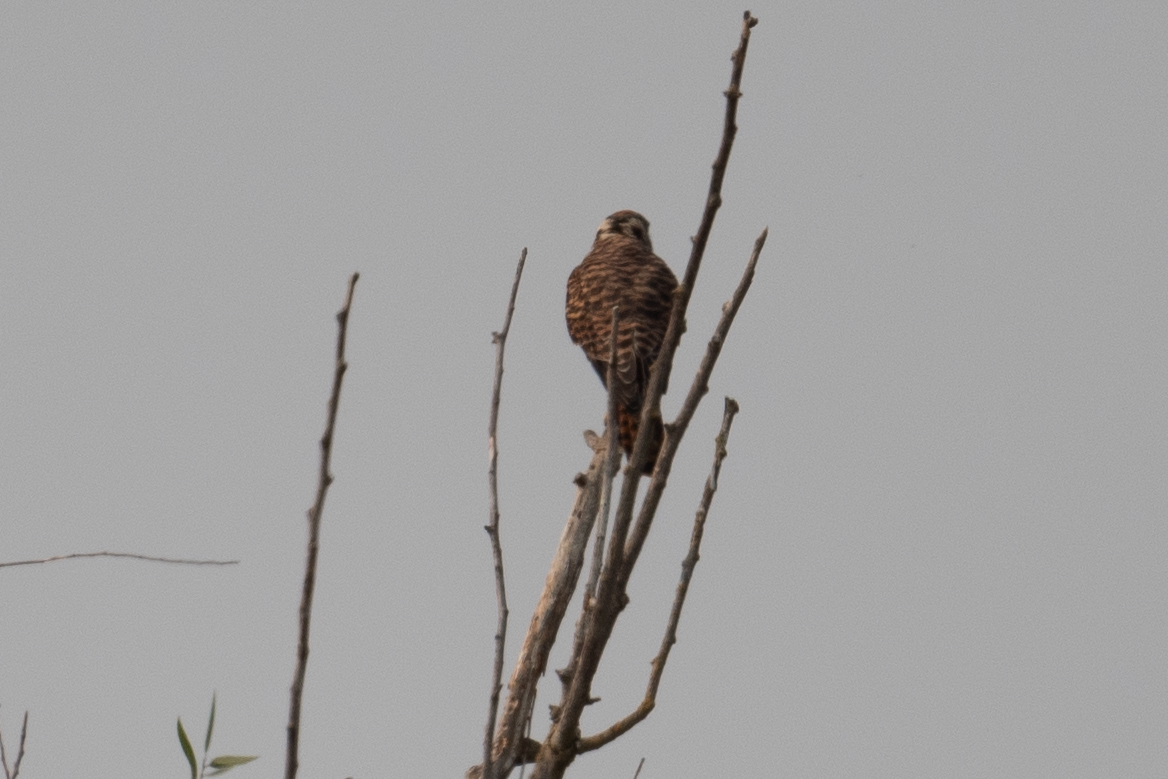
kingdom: Animalia
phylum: Chordata
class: Aves
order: Falconiformes
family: Falconidae
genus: Falco
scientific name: Falco sparverius
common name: American kestrel
